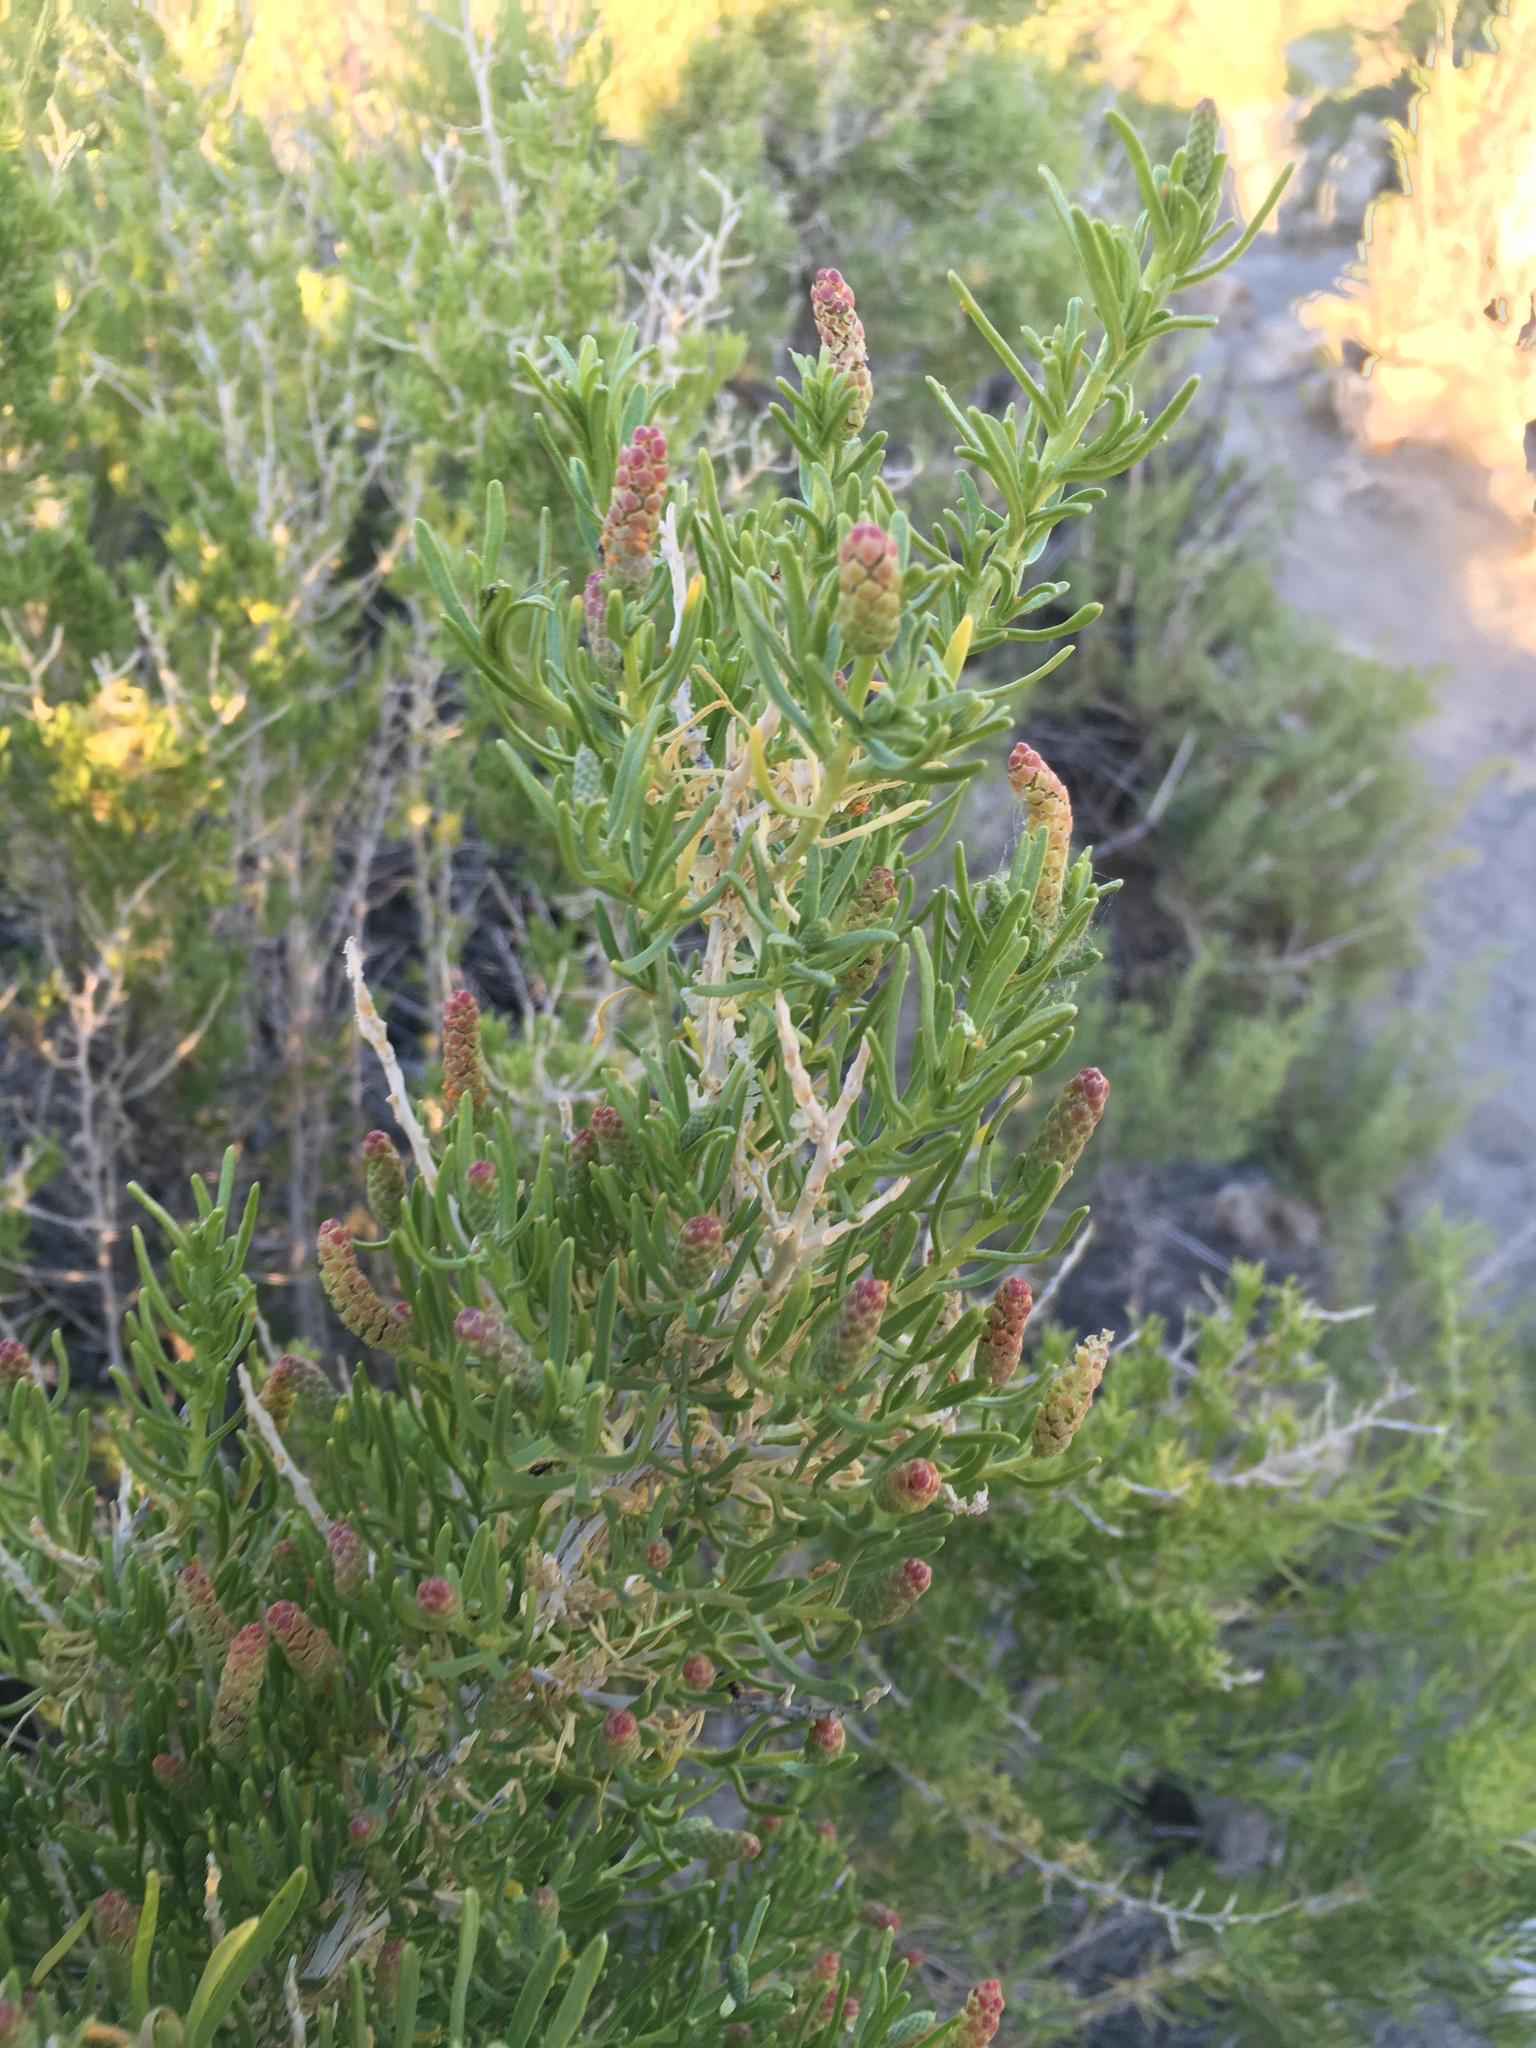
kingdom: Plantae
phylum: Tracheophyta
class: Magnoliopsida
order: Caryophyllales
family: Sarcobataceae
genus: Sarcobatus
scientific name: Sarcobatus vermiculatus
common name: Greasewood
